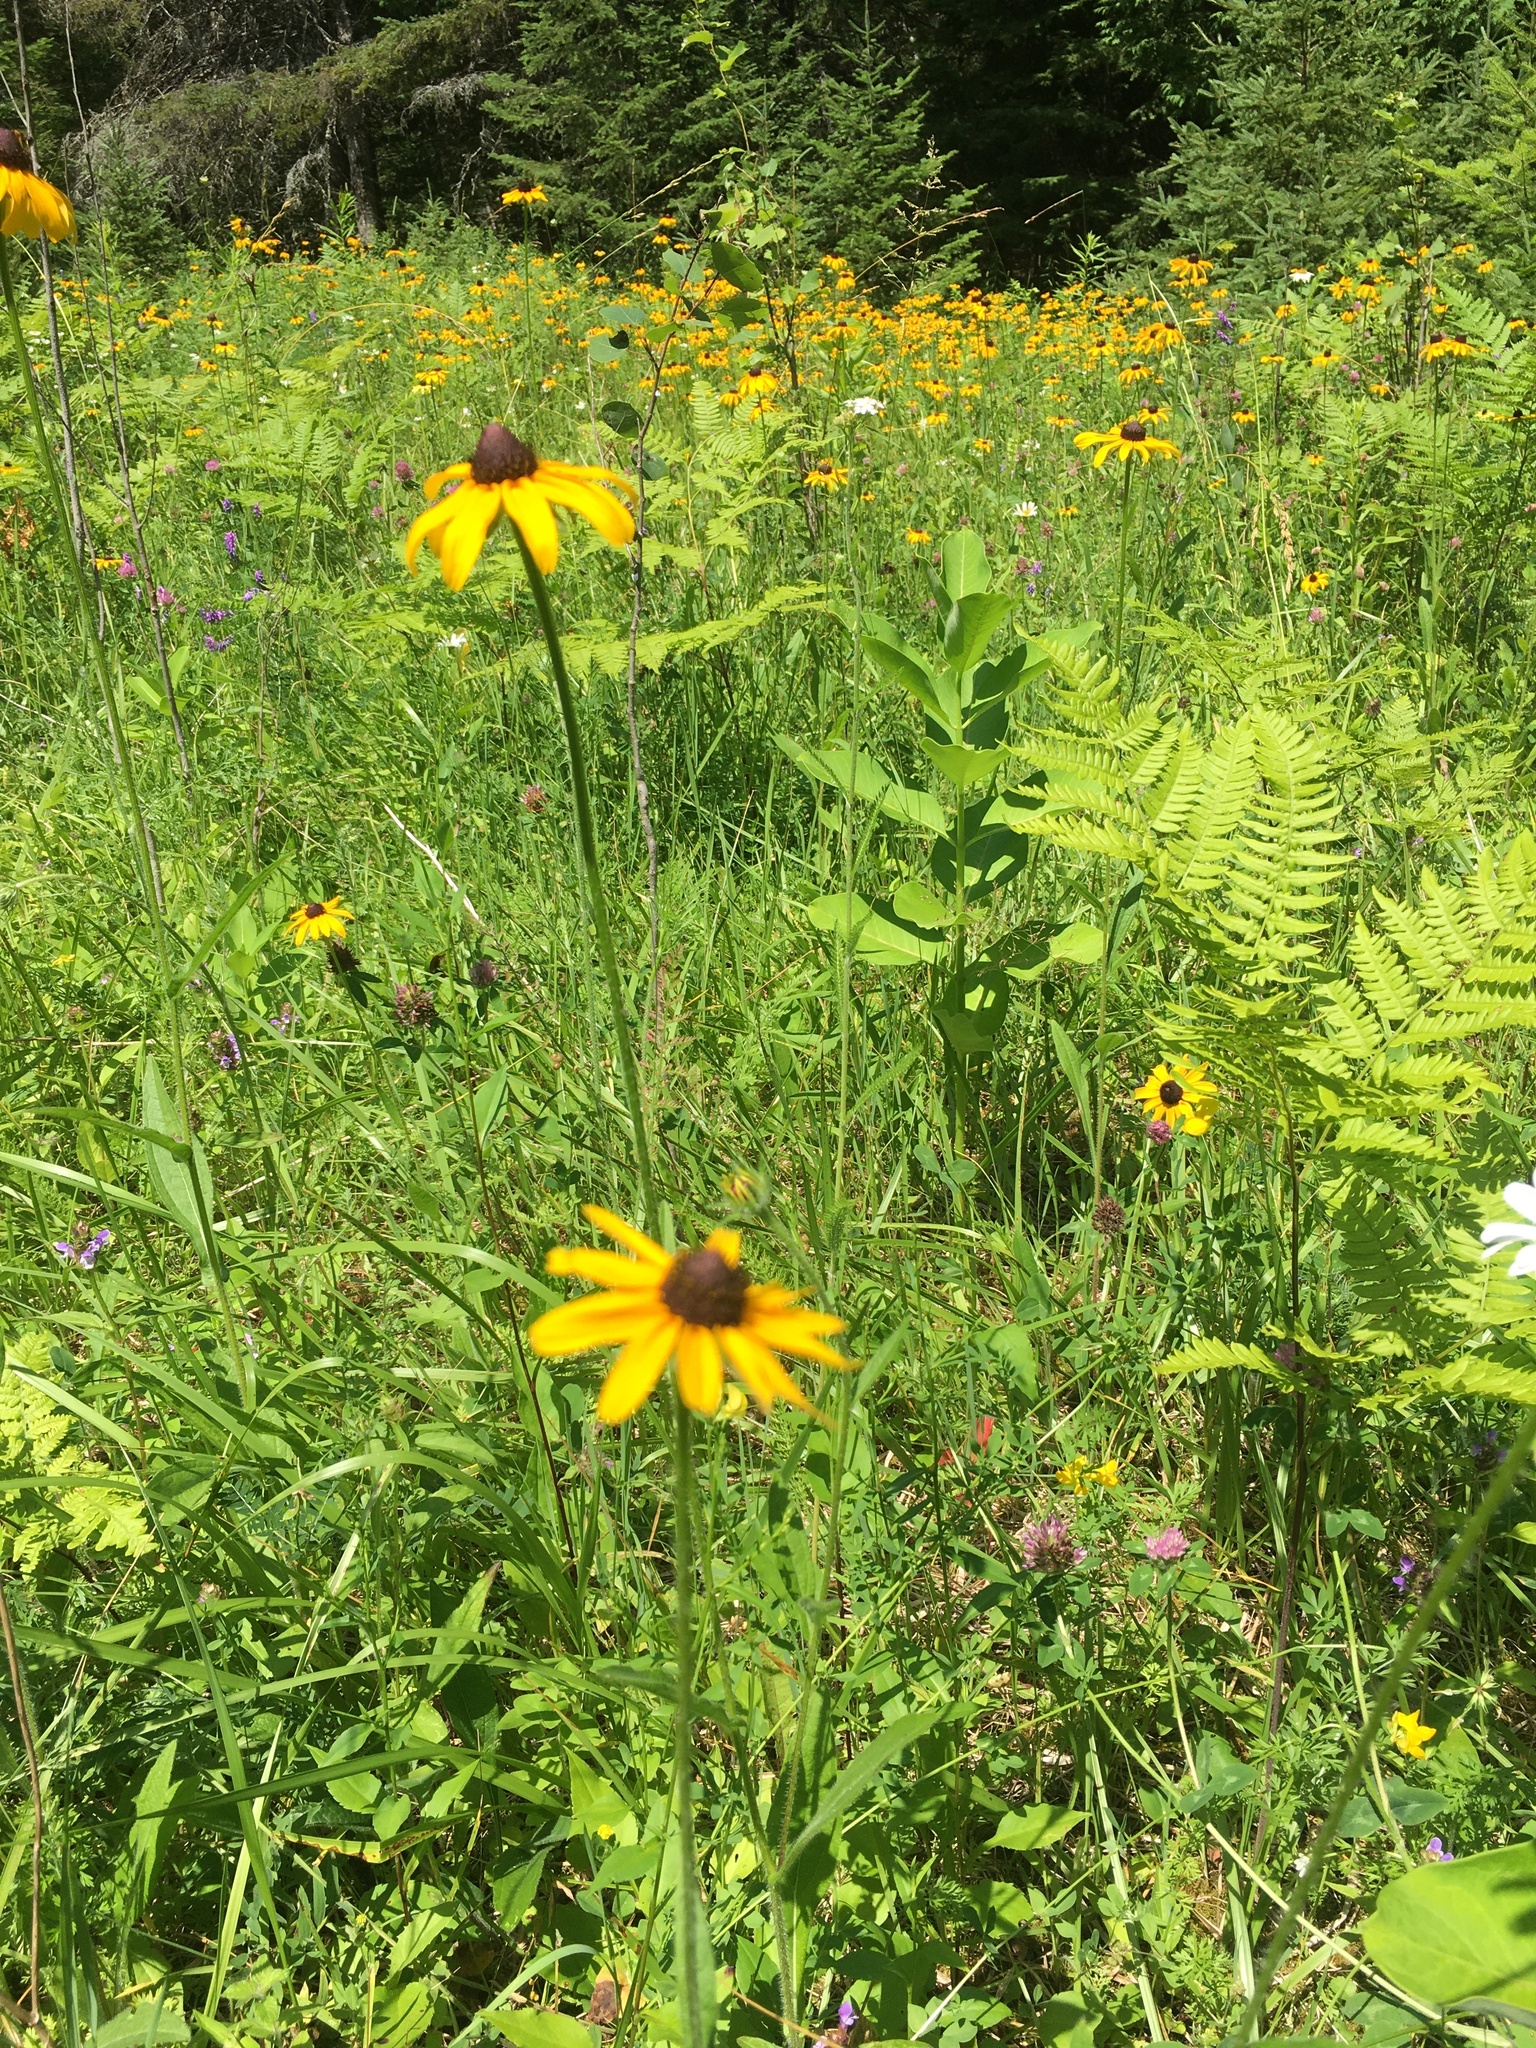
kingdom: Plantae
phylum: Tracheophyta
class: Magnoliopsida
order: Asterales
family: Asteraceae
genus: Rudbeckia
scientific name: Rudbeckia hirta
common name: Black-eyed-susan
